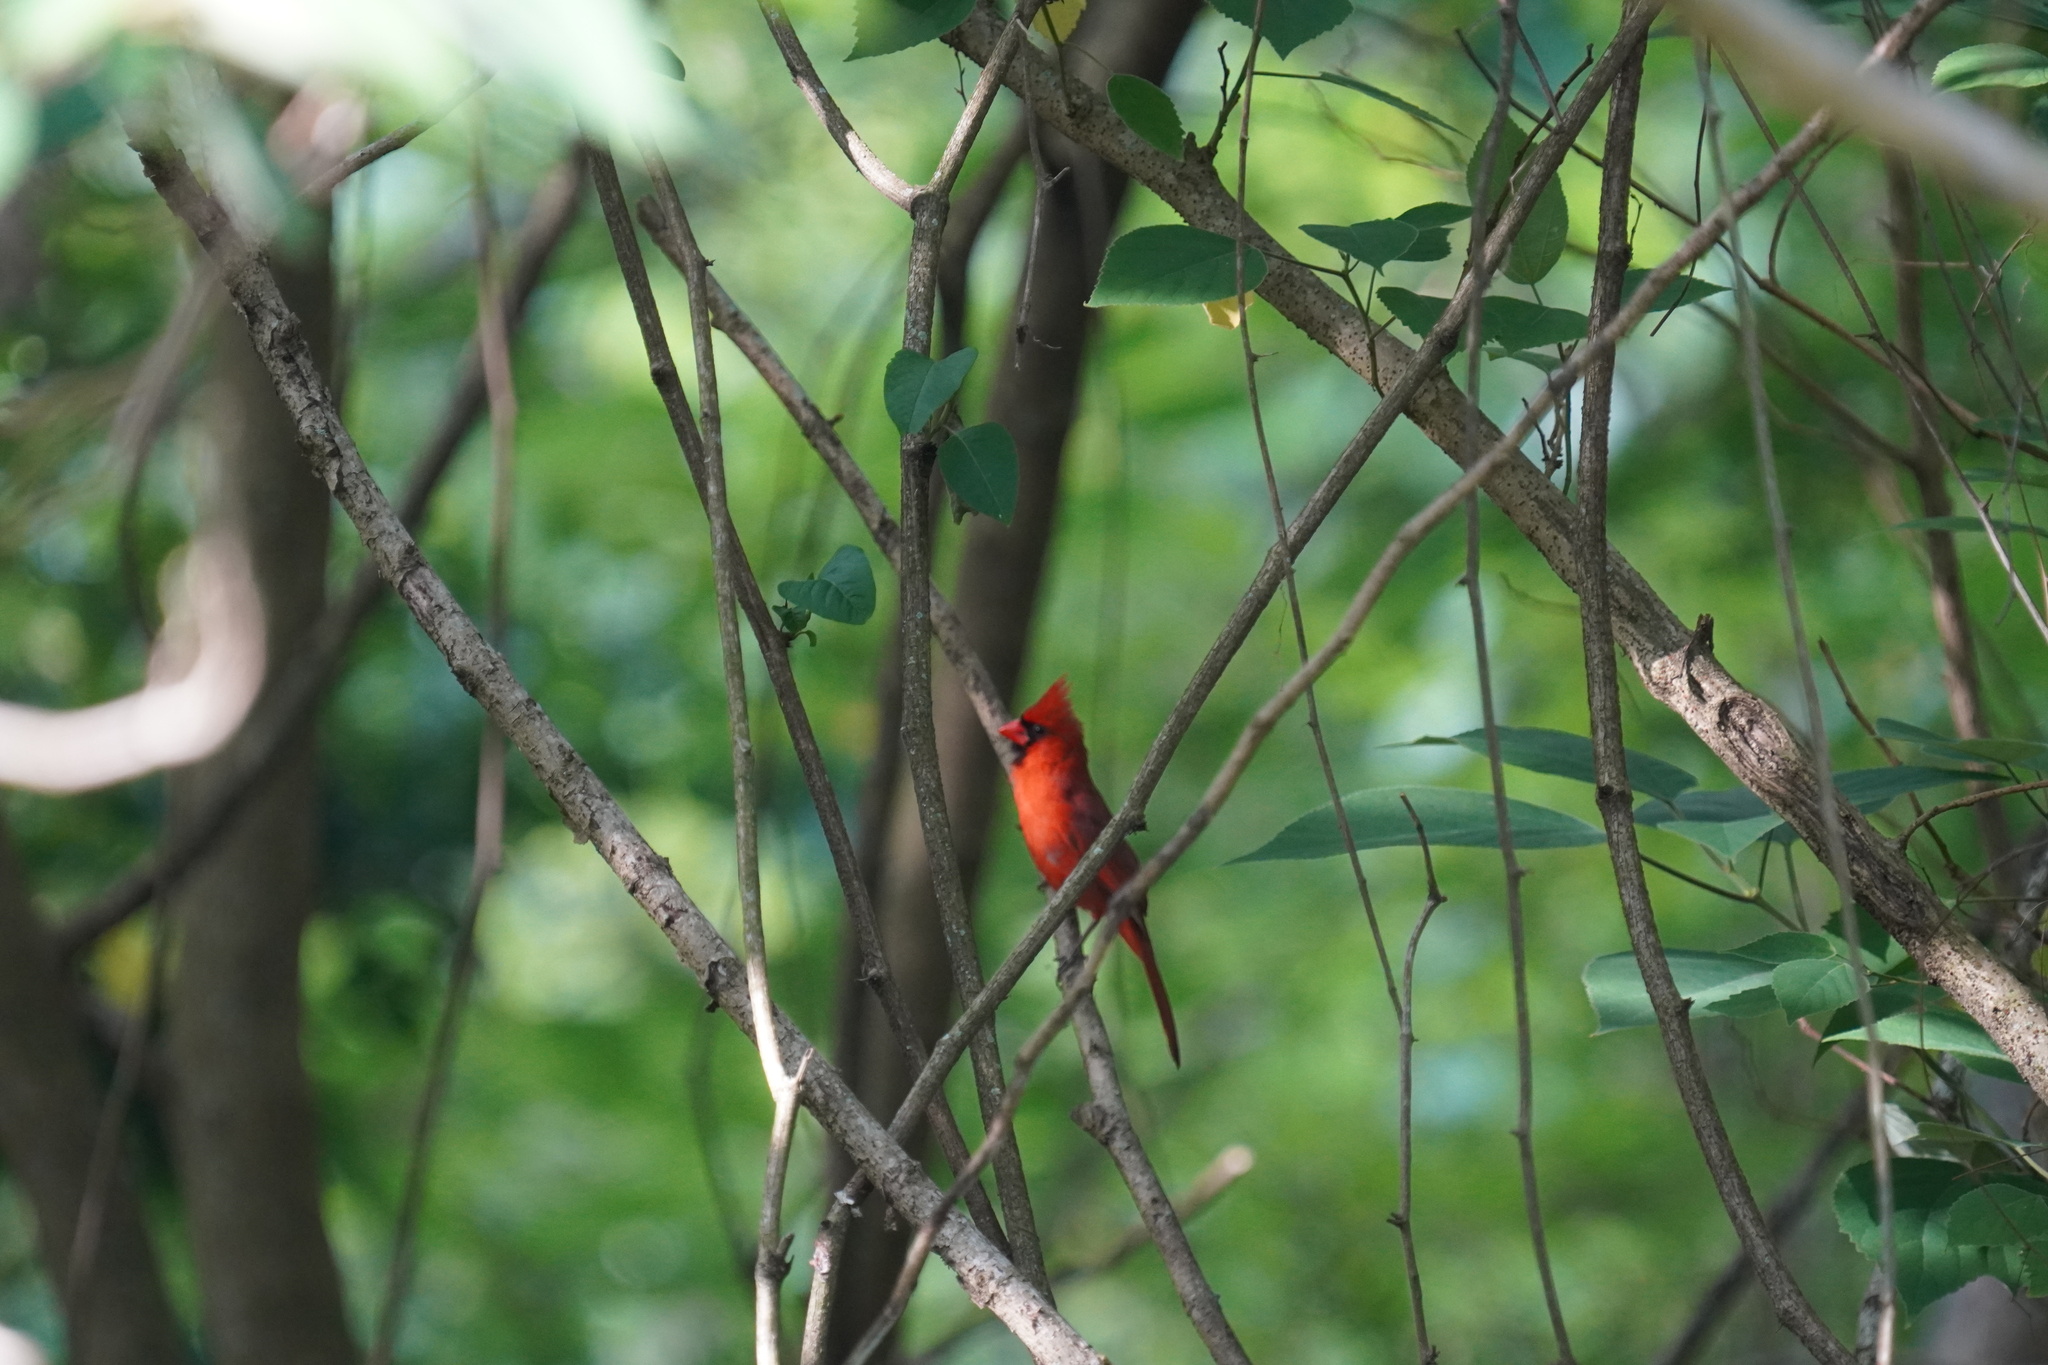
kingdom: Animalia
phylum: Chordata
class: Aves
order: Passeriformes
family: Cardinalidae
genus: Cardinalis
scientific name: Cardinalis cardinalis
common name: Northern cardinal
